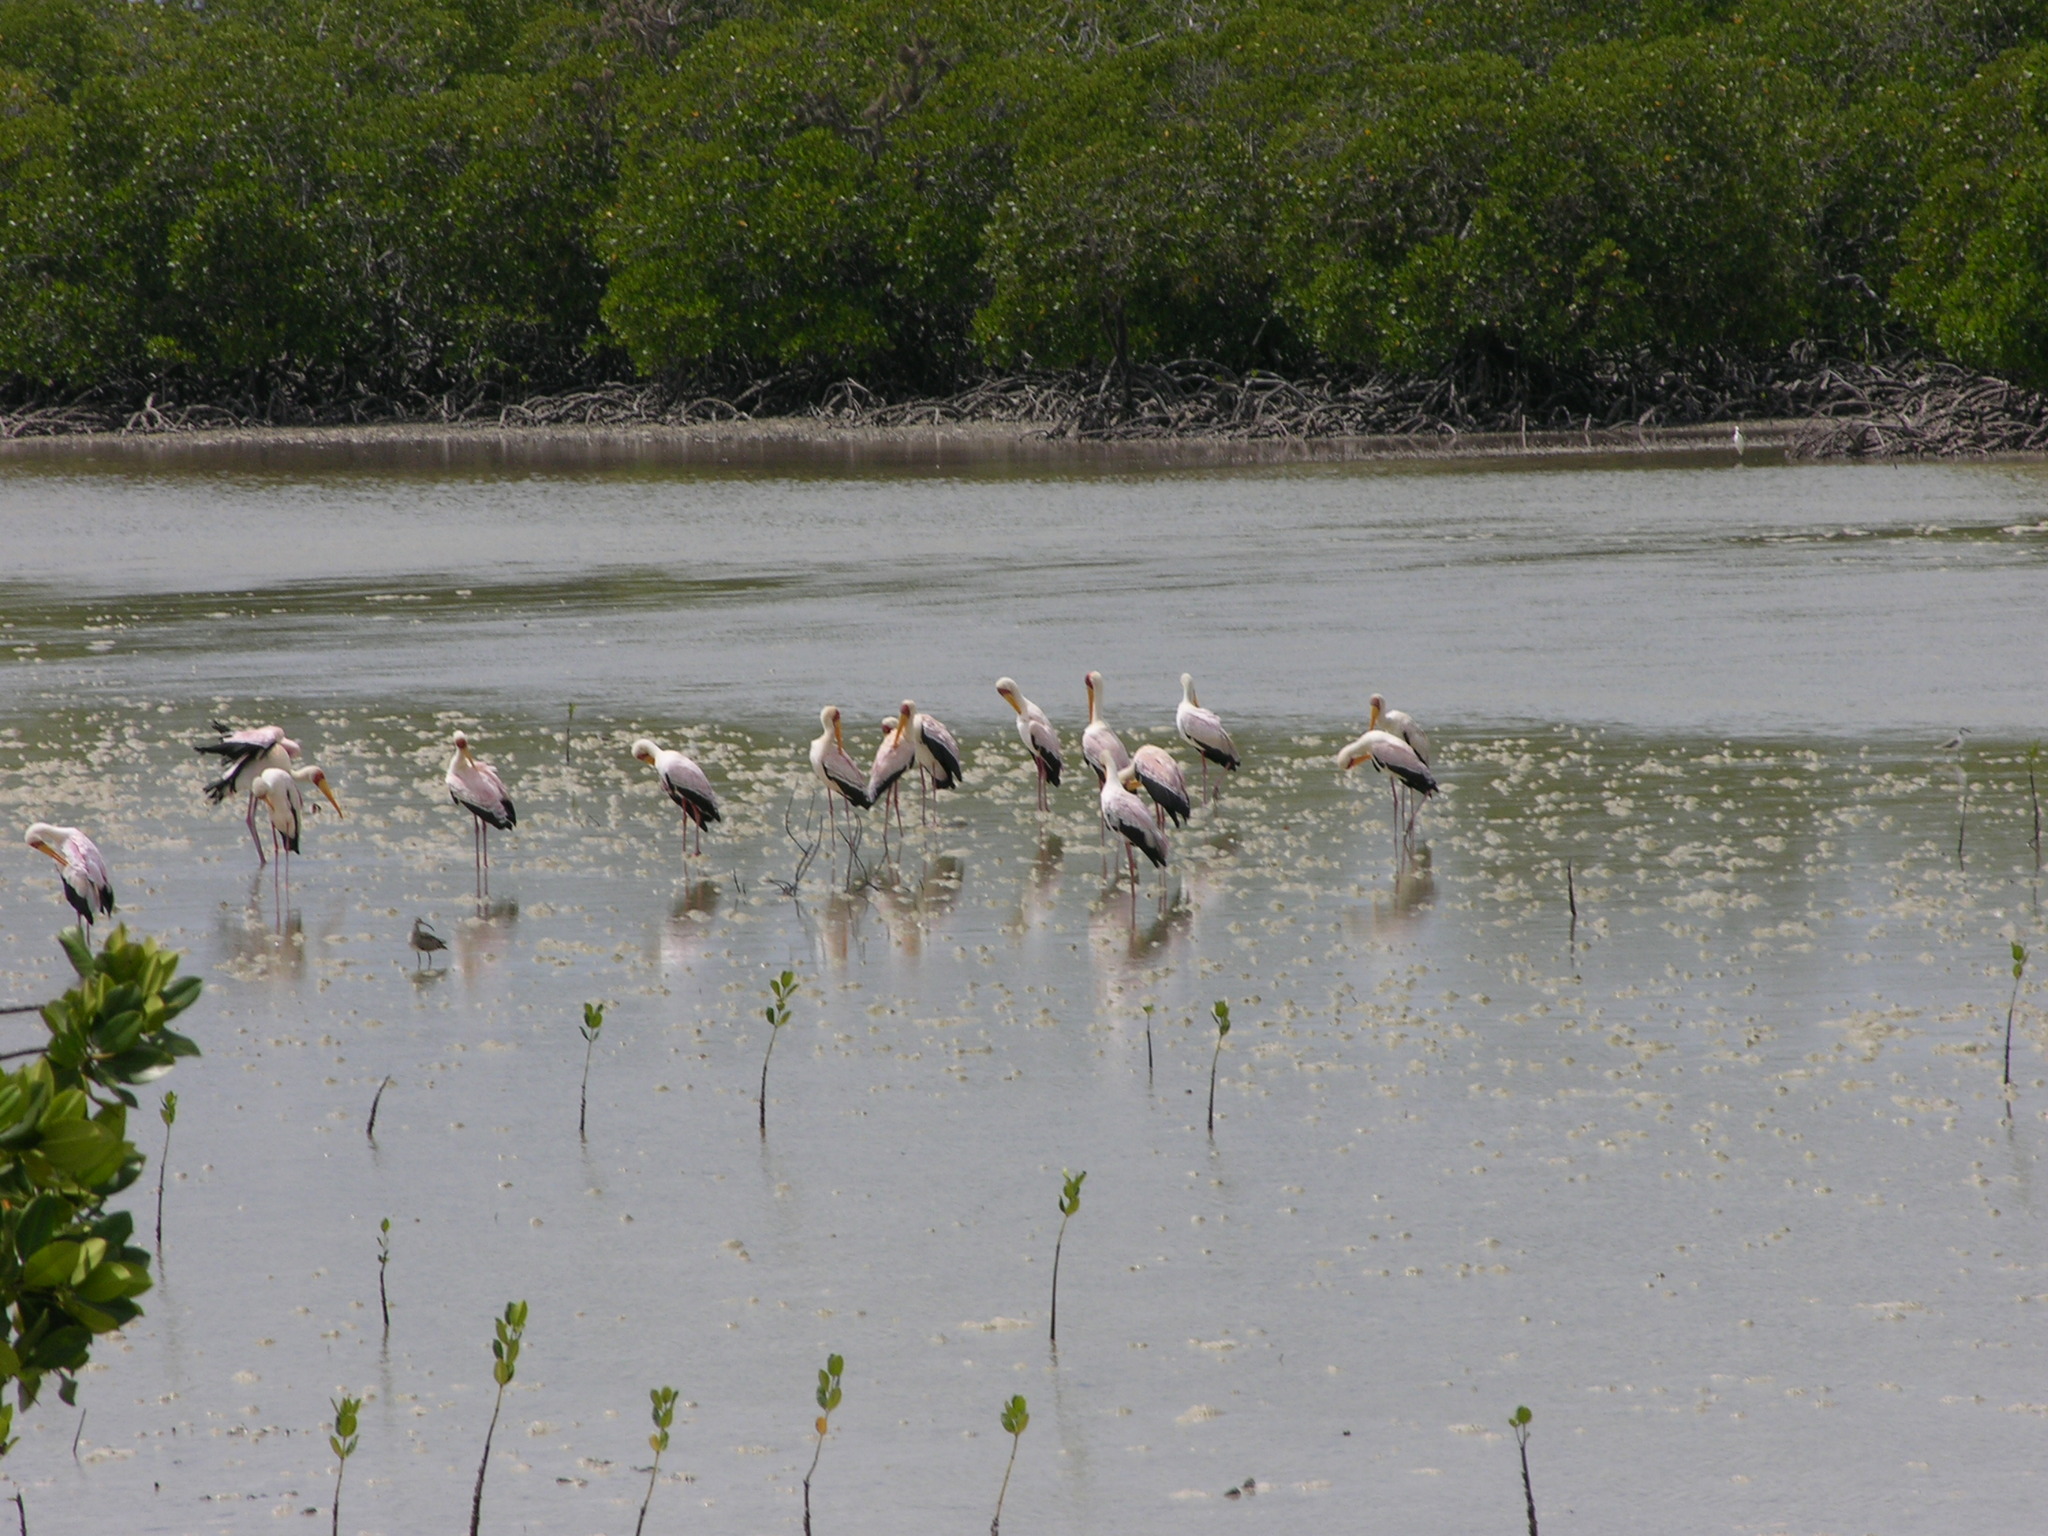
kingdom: Animalia
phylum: Chordata
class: Aves
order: Ciconiiformes
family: Ciconiidae
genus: Mycteria
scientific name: Mycteria ibis
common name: Yellow-billed stork
